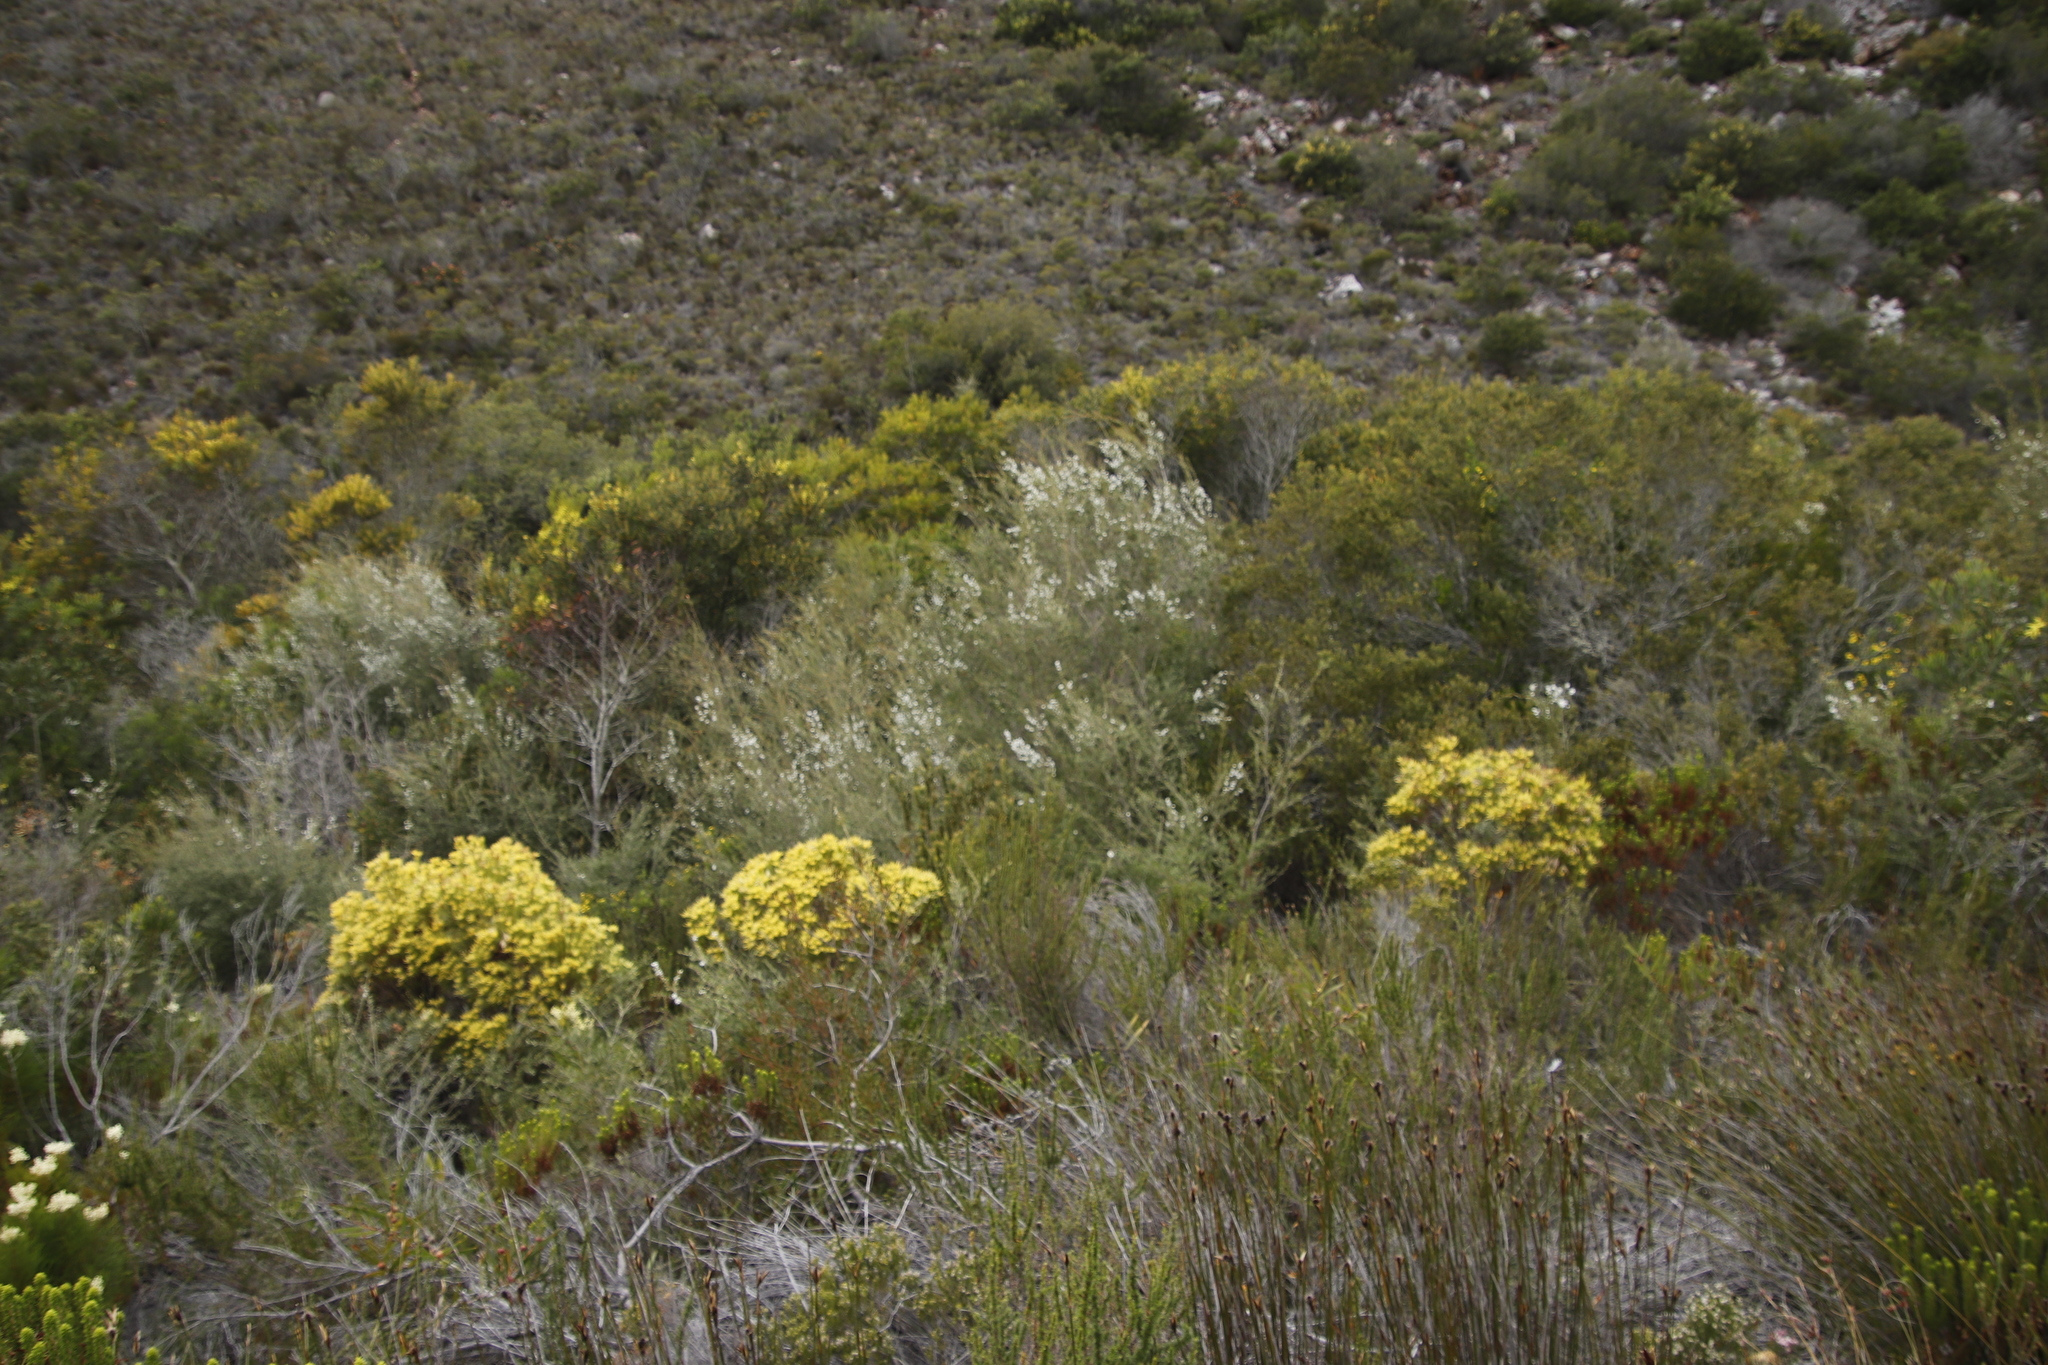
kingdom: Plantae
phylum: Tracheophyta
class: Magnoliopsida
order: Proteales
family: Proteaceae
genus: Leucadendron
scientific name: Leucadendron xanthoconus
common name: Sickle-leaf conebush
